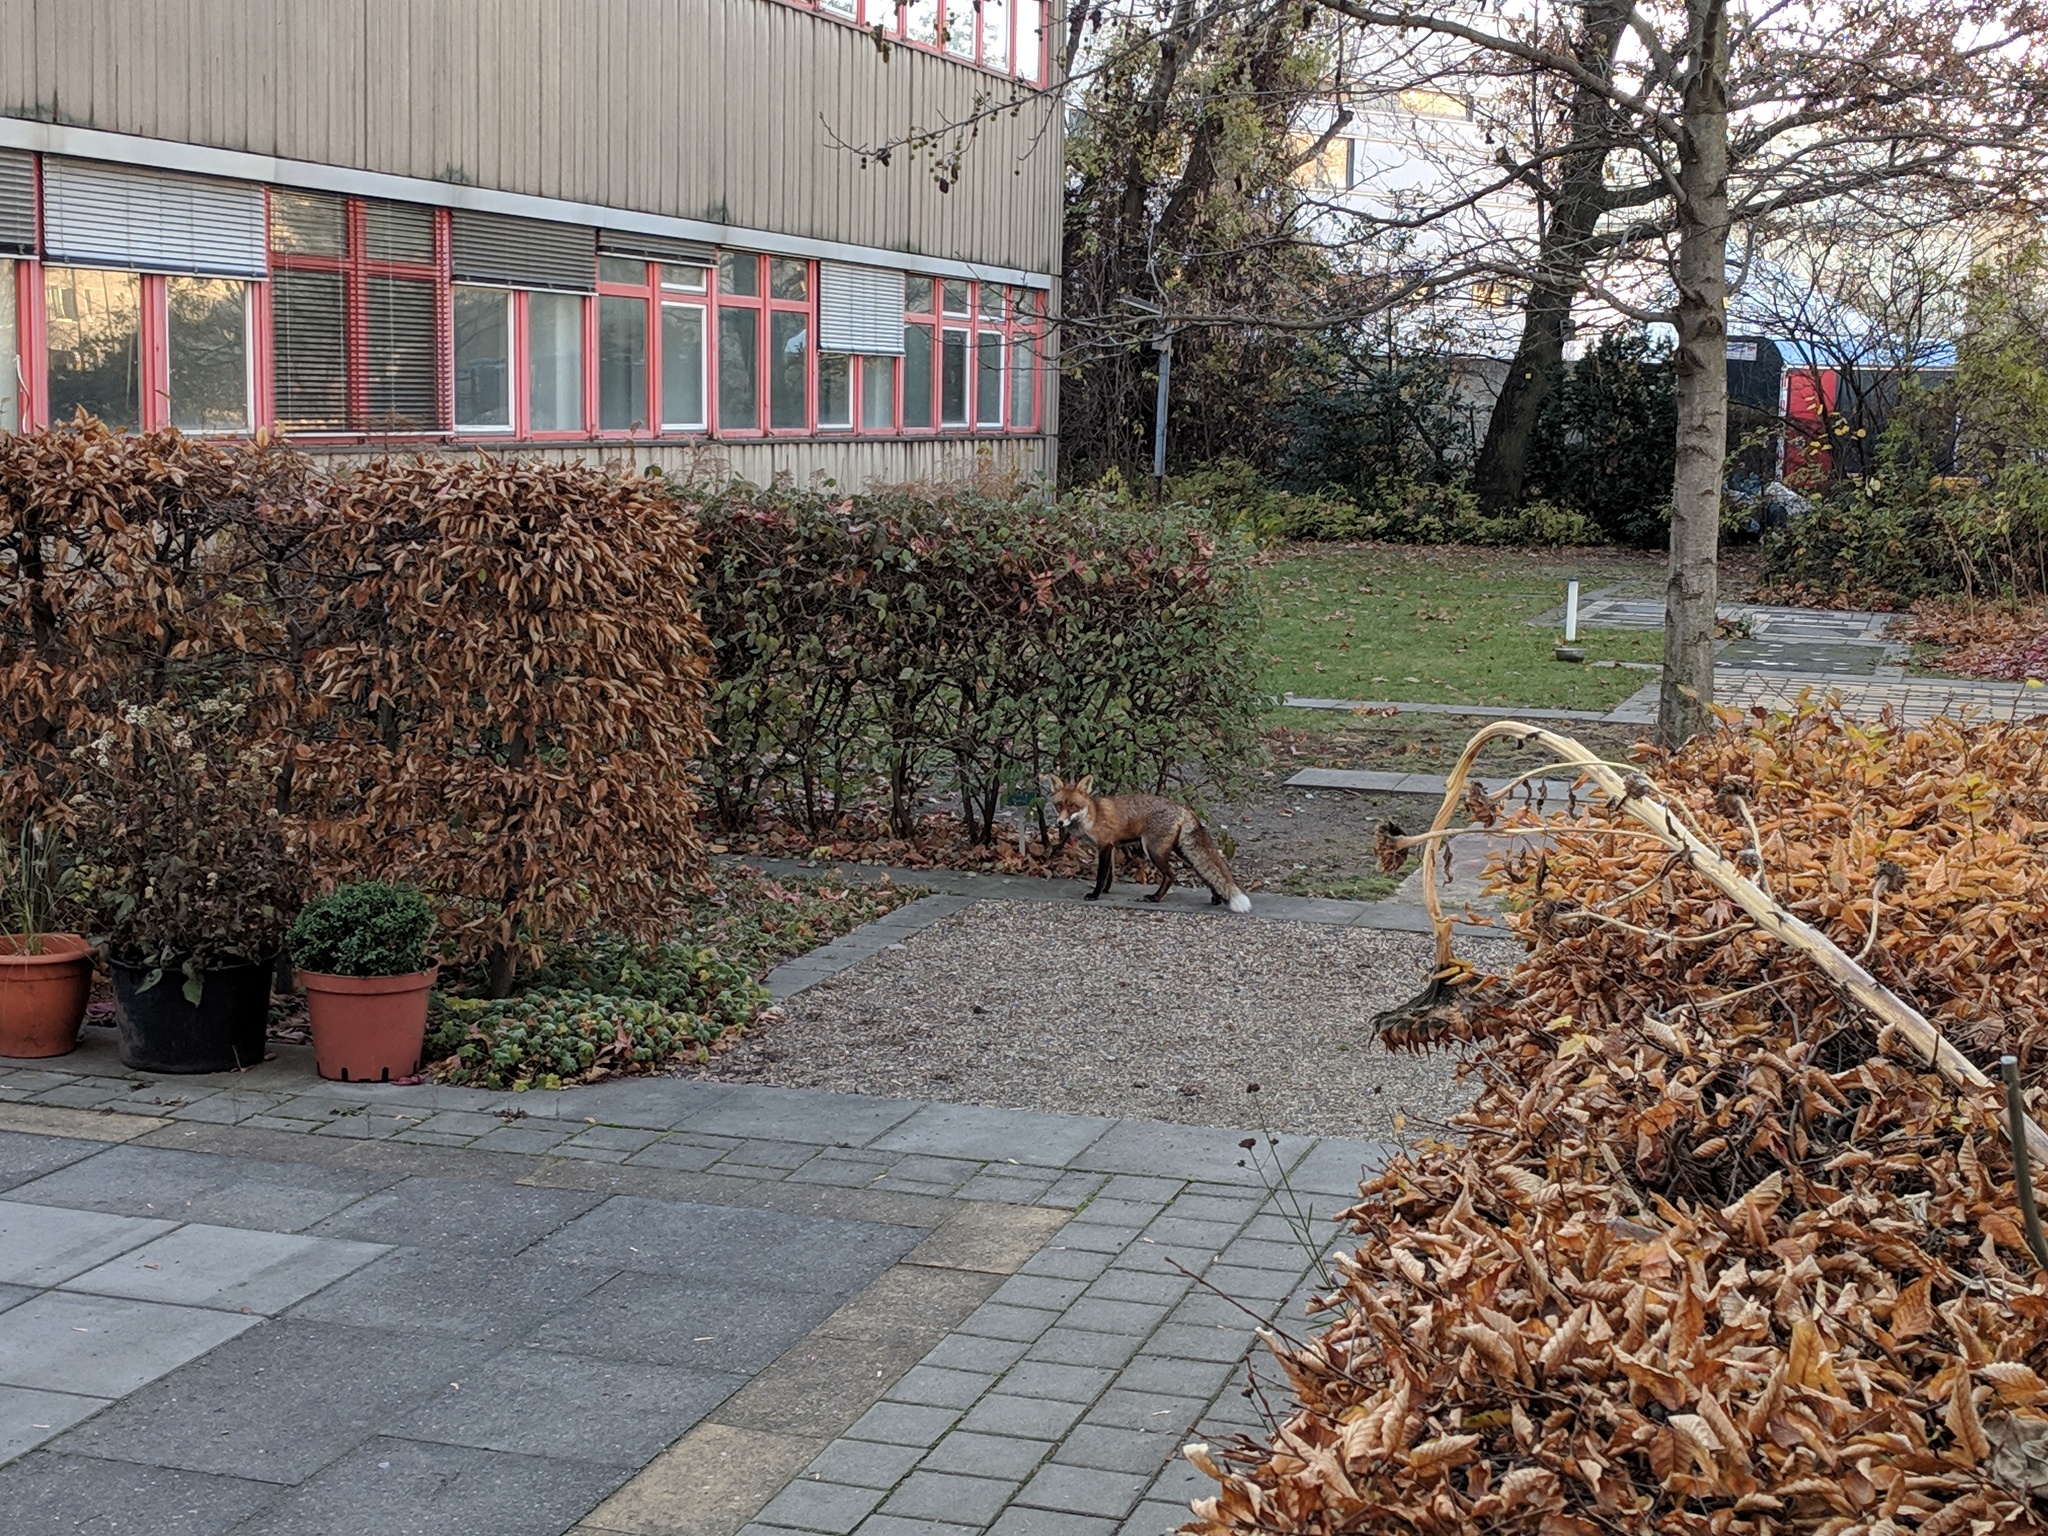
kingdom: Animalia
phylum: Chordata
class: Mammalia
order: Carnivora
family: Canidae
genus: Vulpes
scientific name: Vulpes vulpes
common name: Red fox
